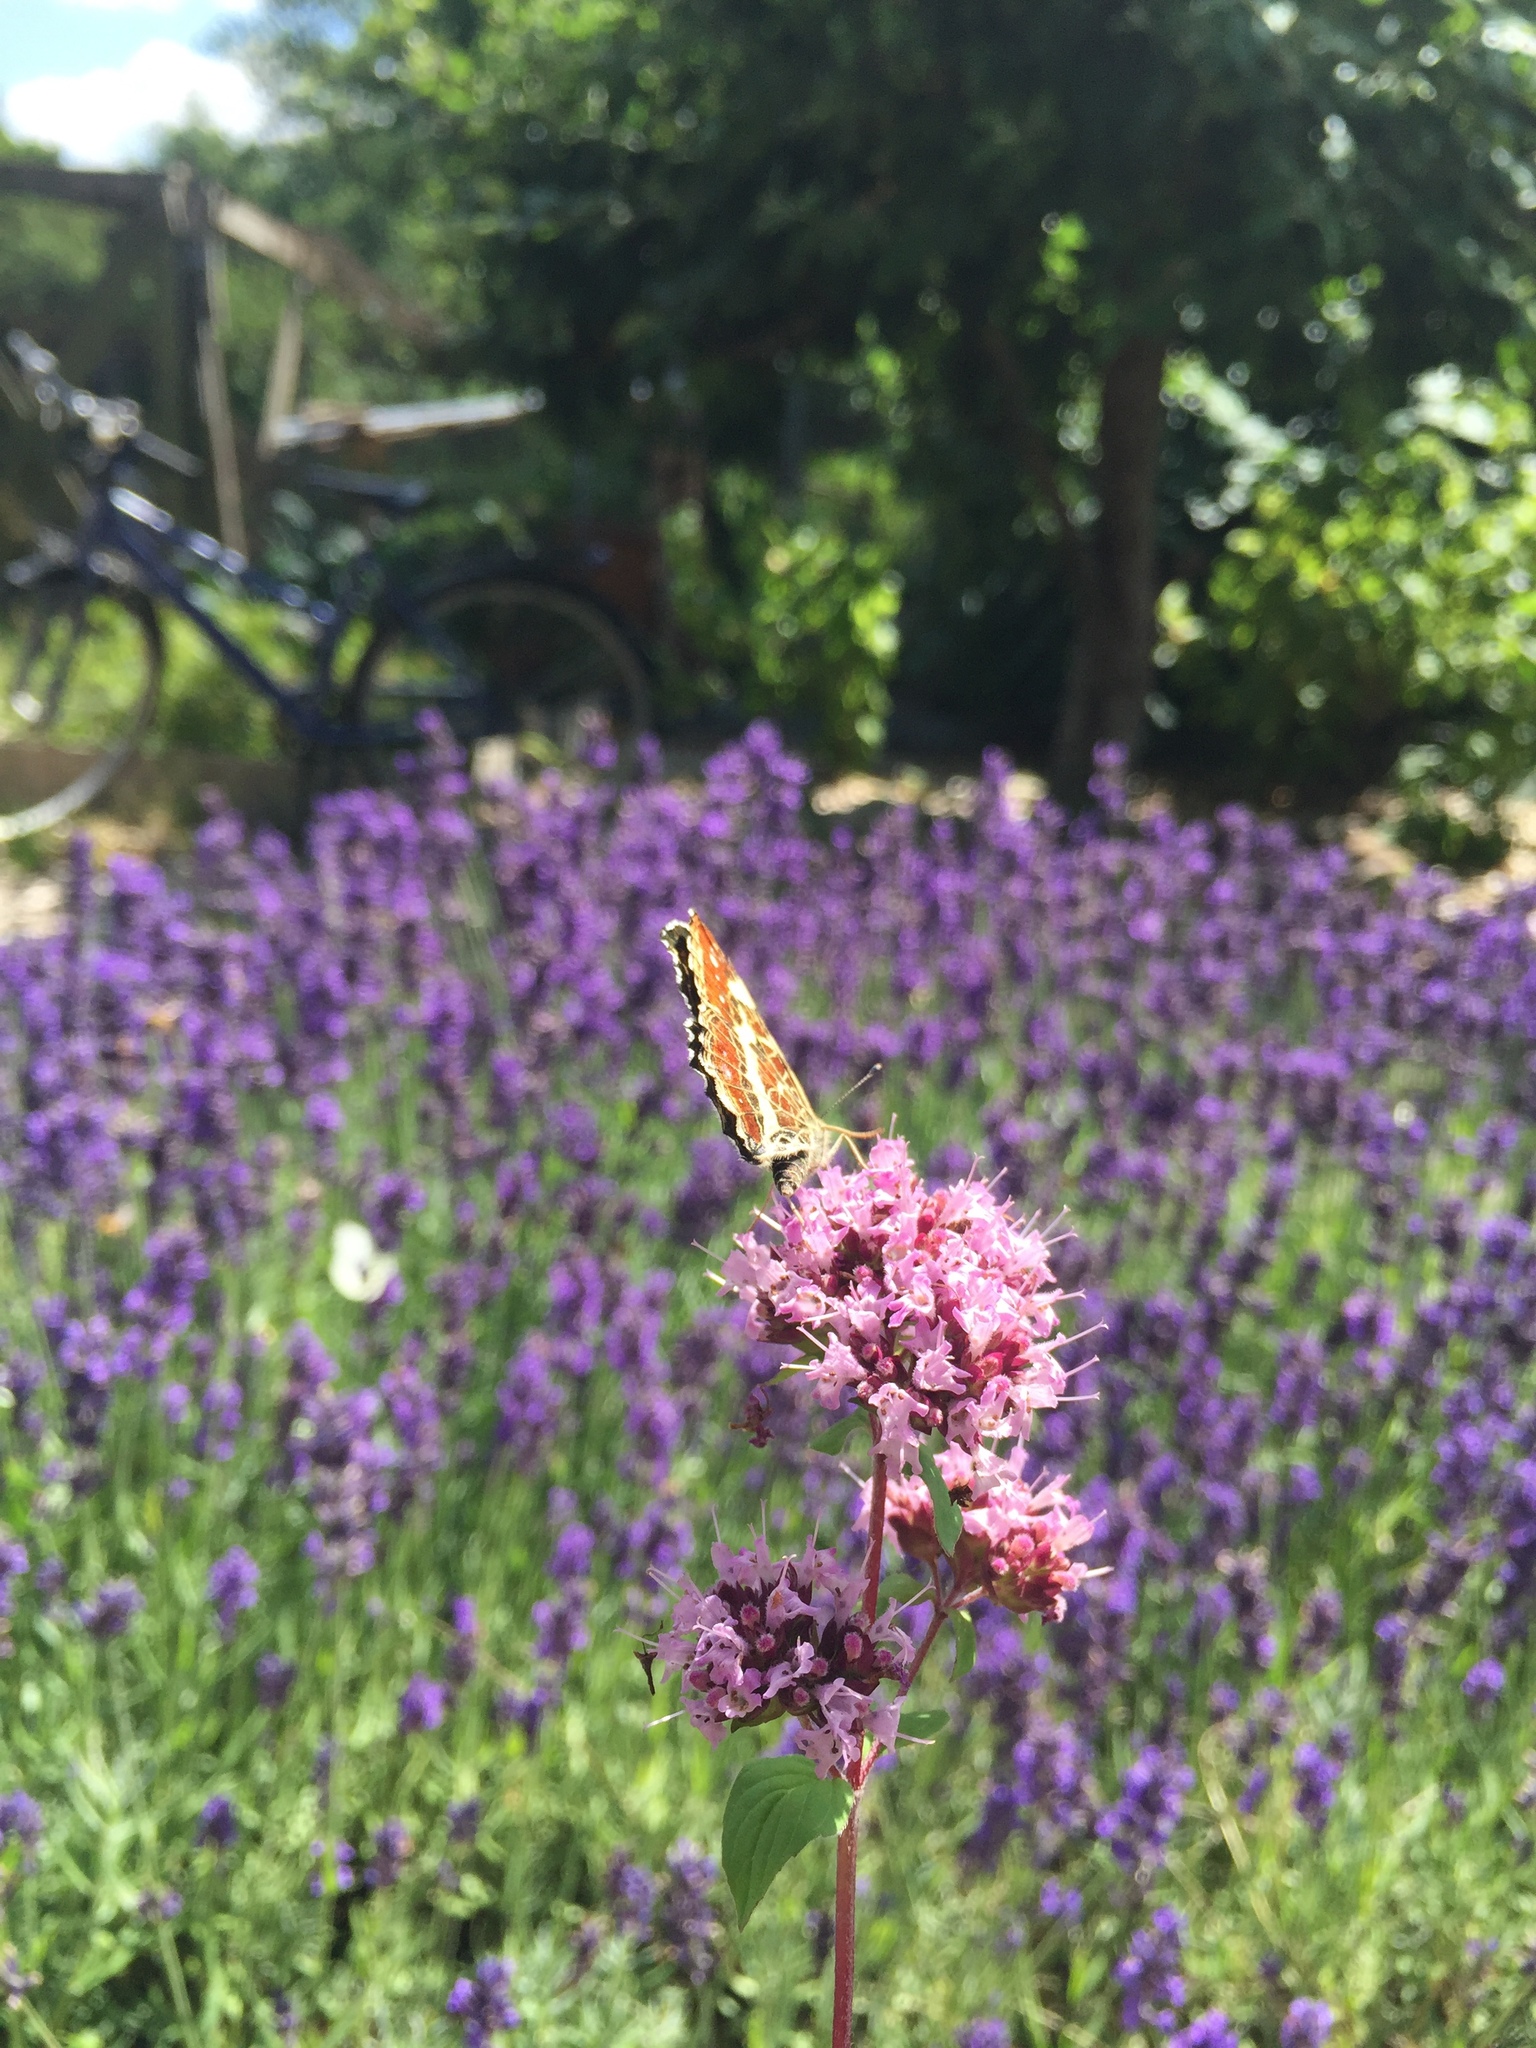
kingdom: Animalia
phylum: Arthropoda
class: Insecta
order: Lepidoptera
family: Nymphalidae
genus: Araschnia
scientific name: Araschnia levana
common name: Map butterfly
